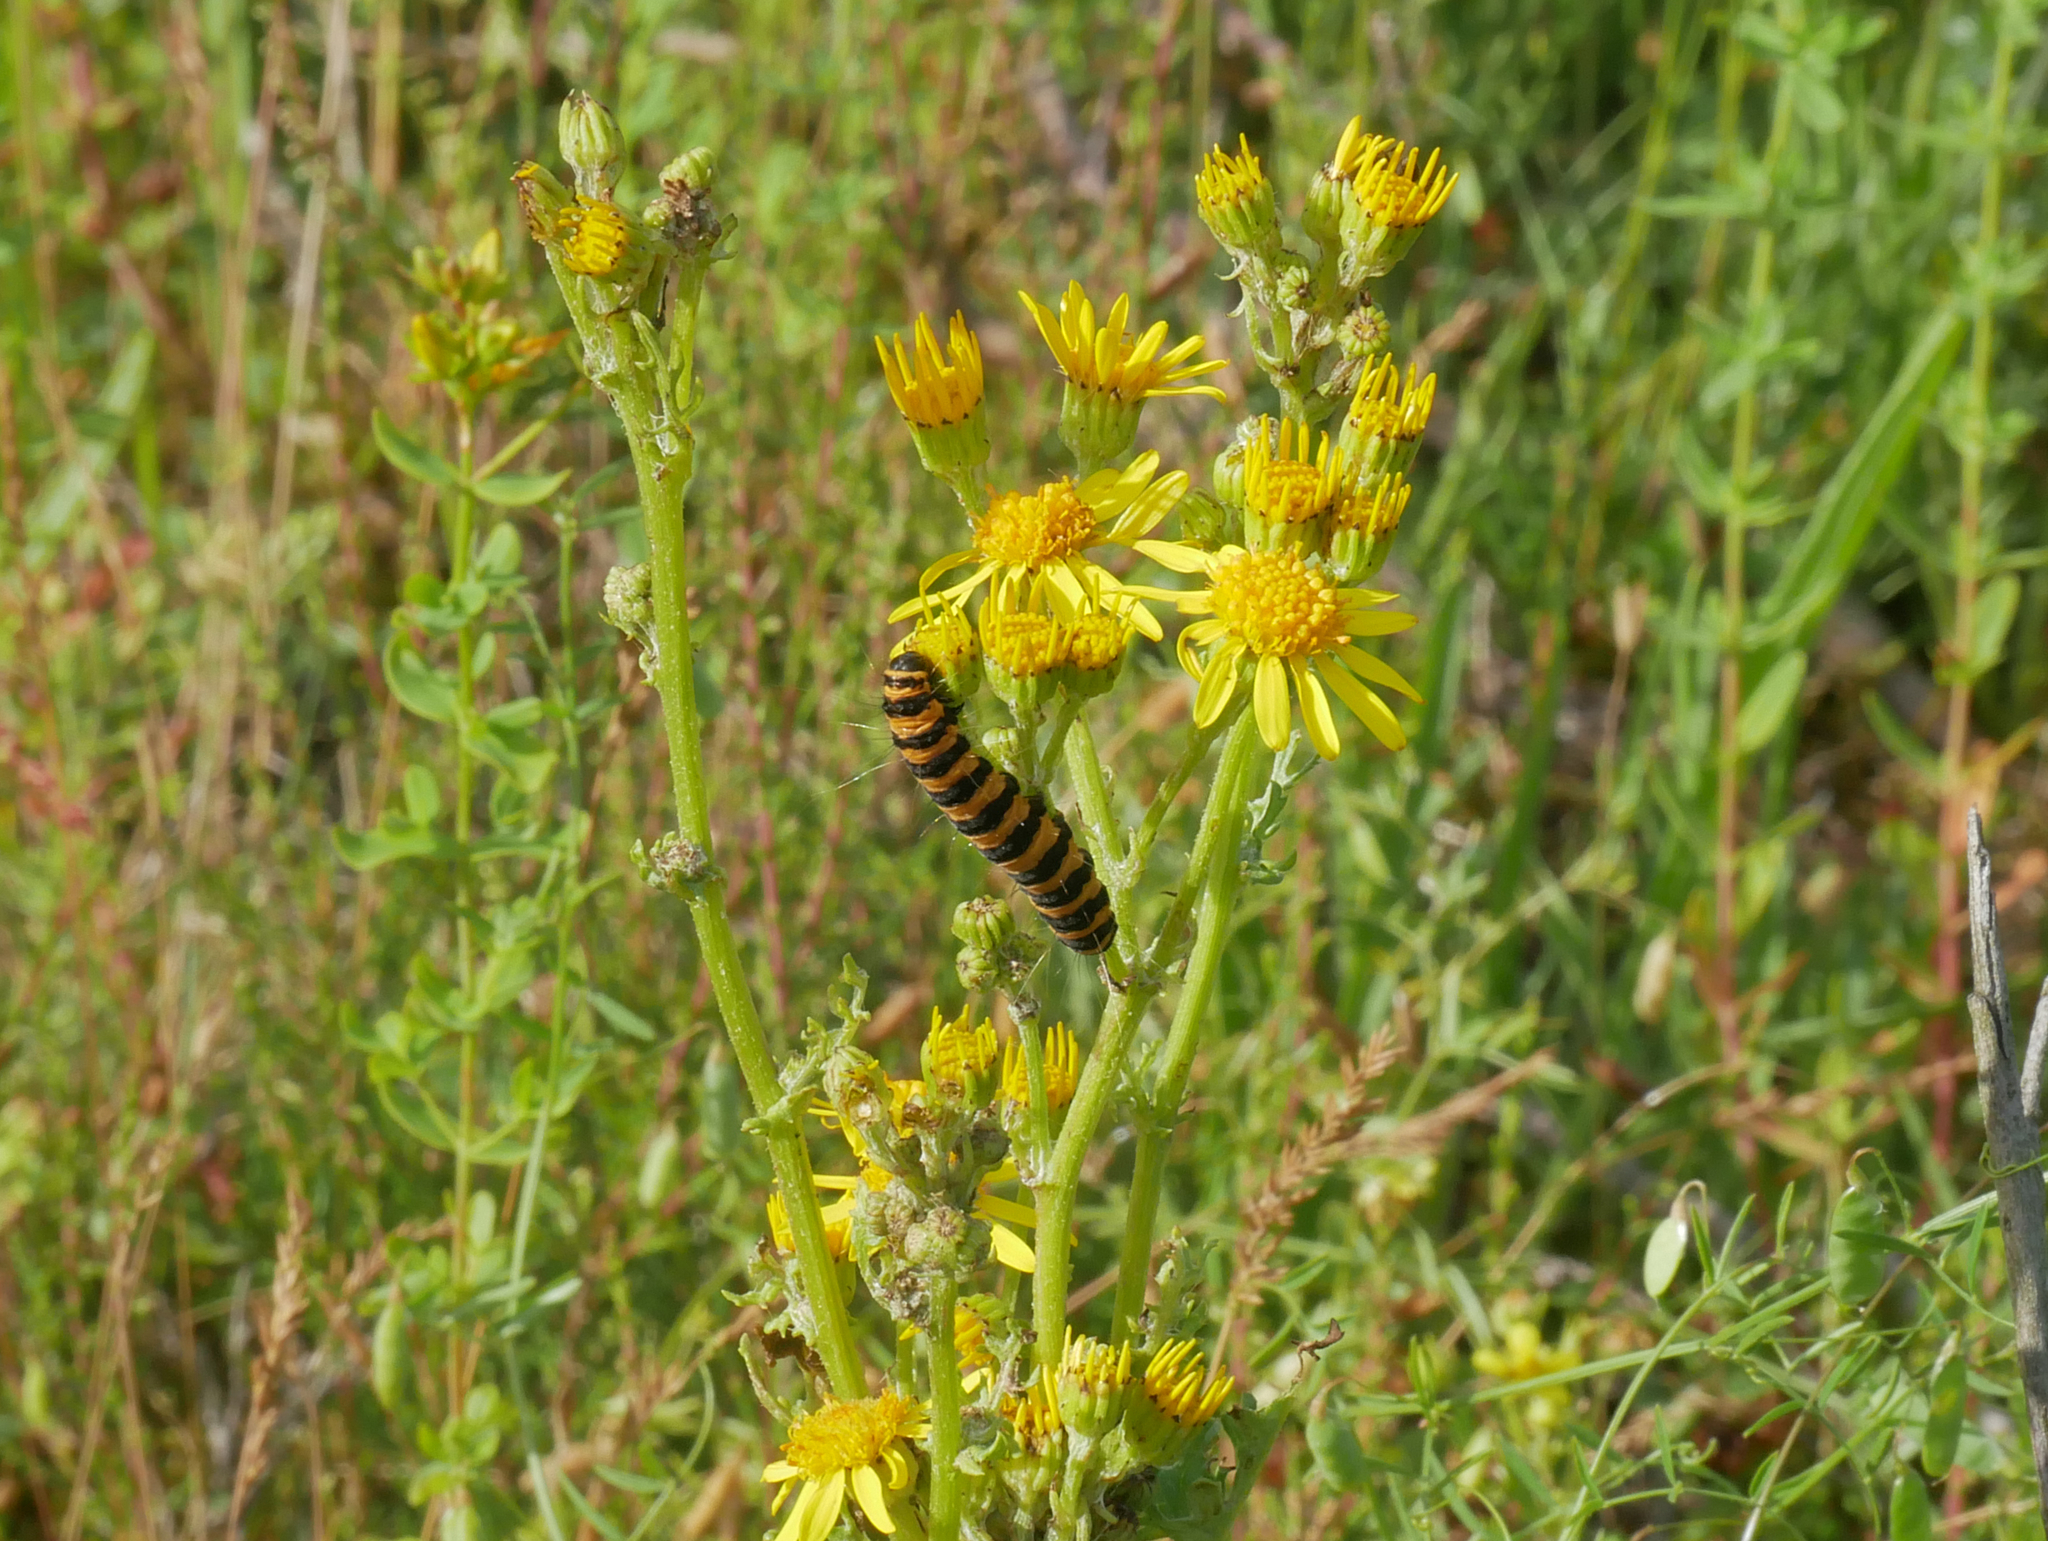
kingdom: Plantae
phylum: Tracheophyta
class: Magnoliopsida
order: Asterales
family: Asteraceae
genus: Jacobaea
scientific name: Jacobaea vulgaris
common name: Stinking willie
